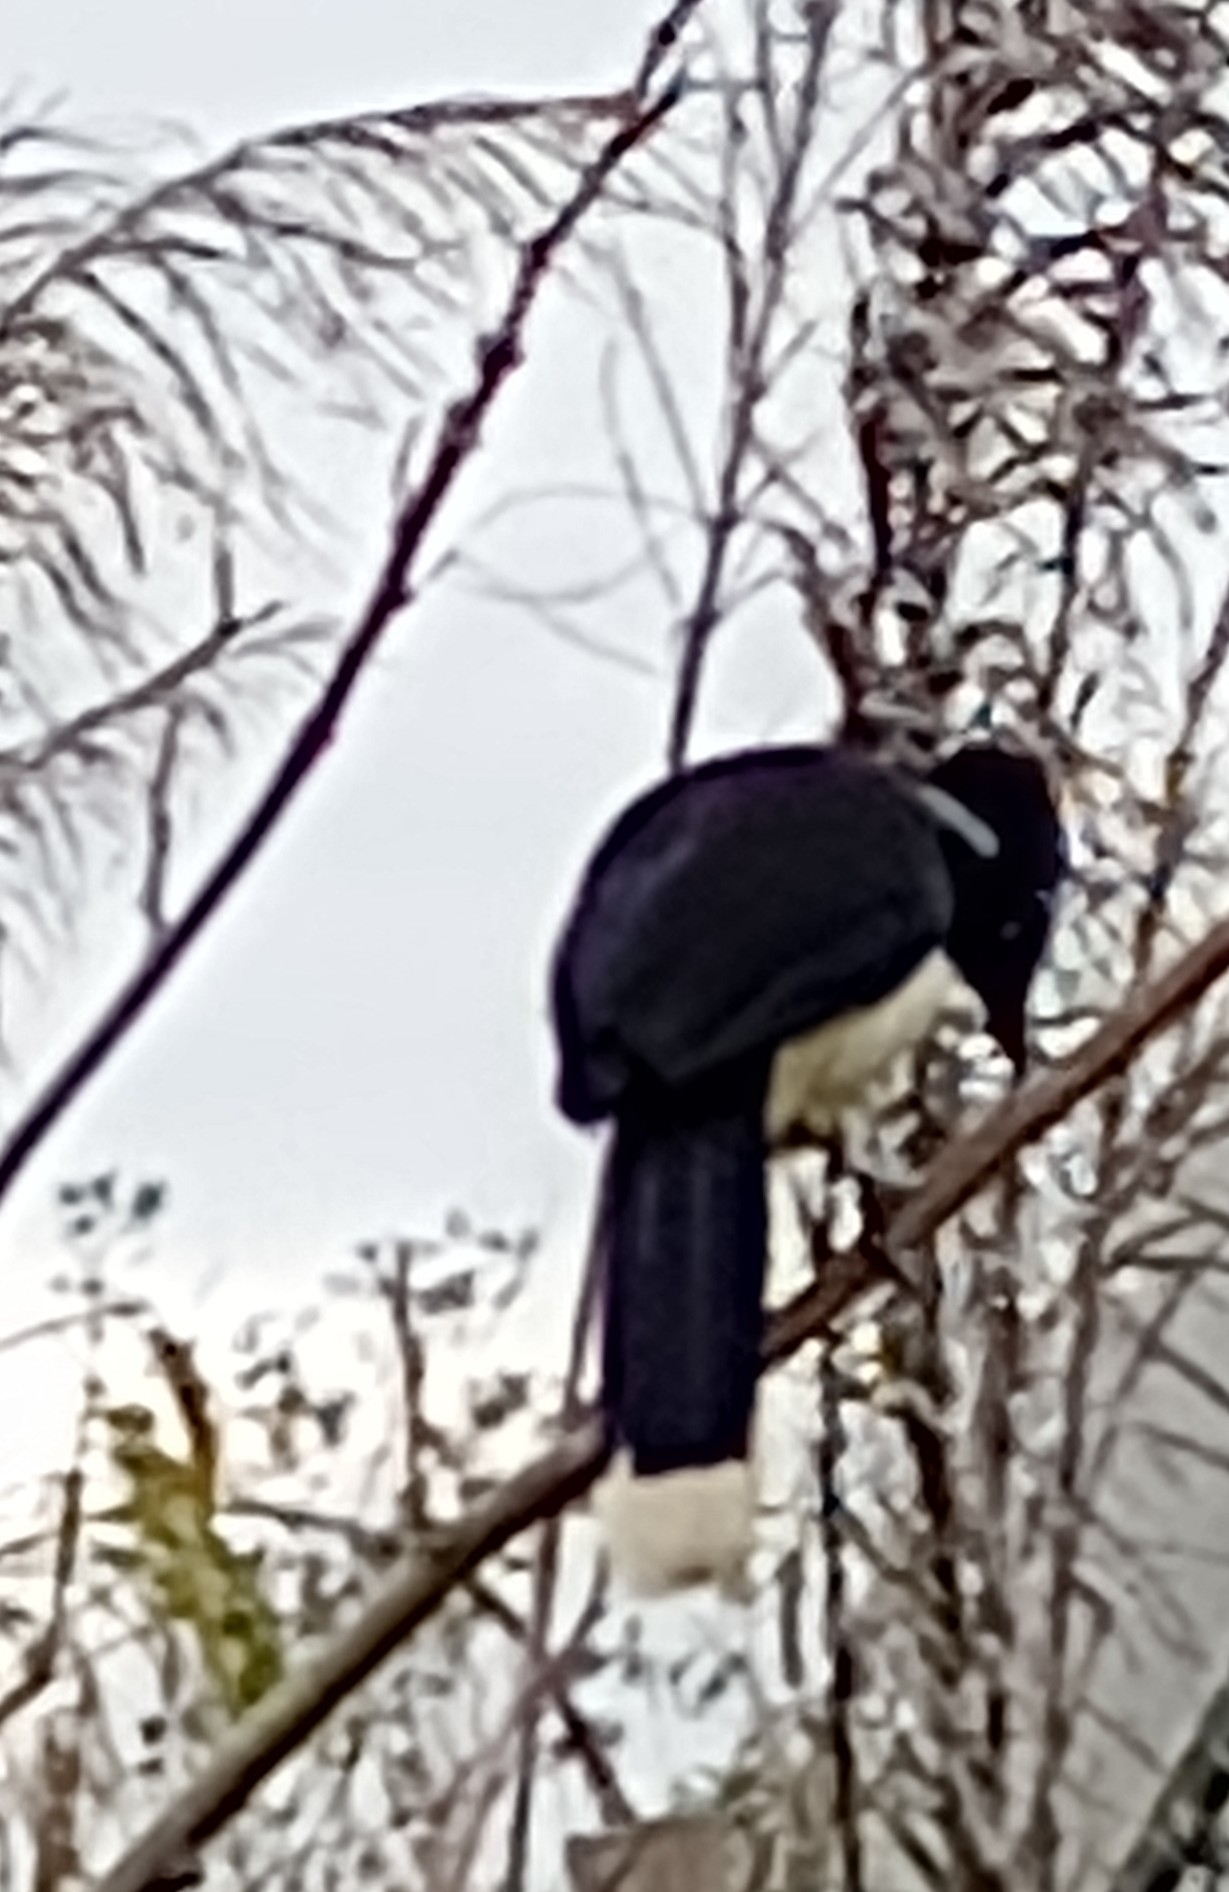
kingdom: Animalia
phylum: Chordata
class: Aves
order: Passeriformes
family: Corvidae
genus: Cyanocorax
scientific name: Cyanocorax chrysops
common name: Plush-crested jay
